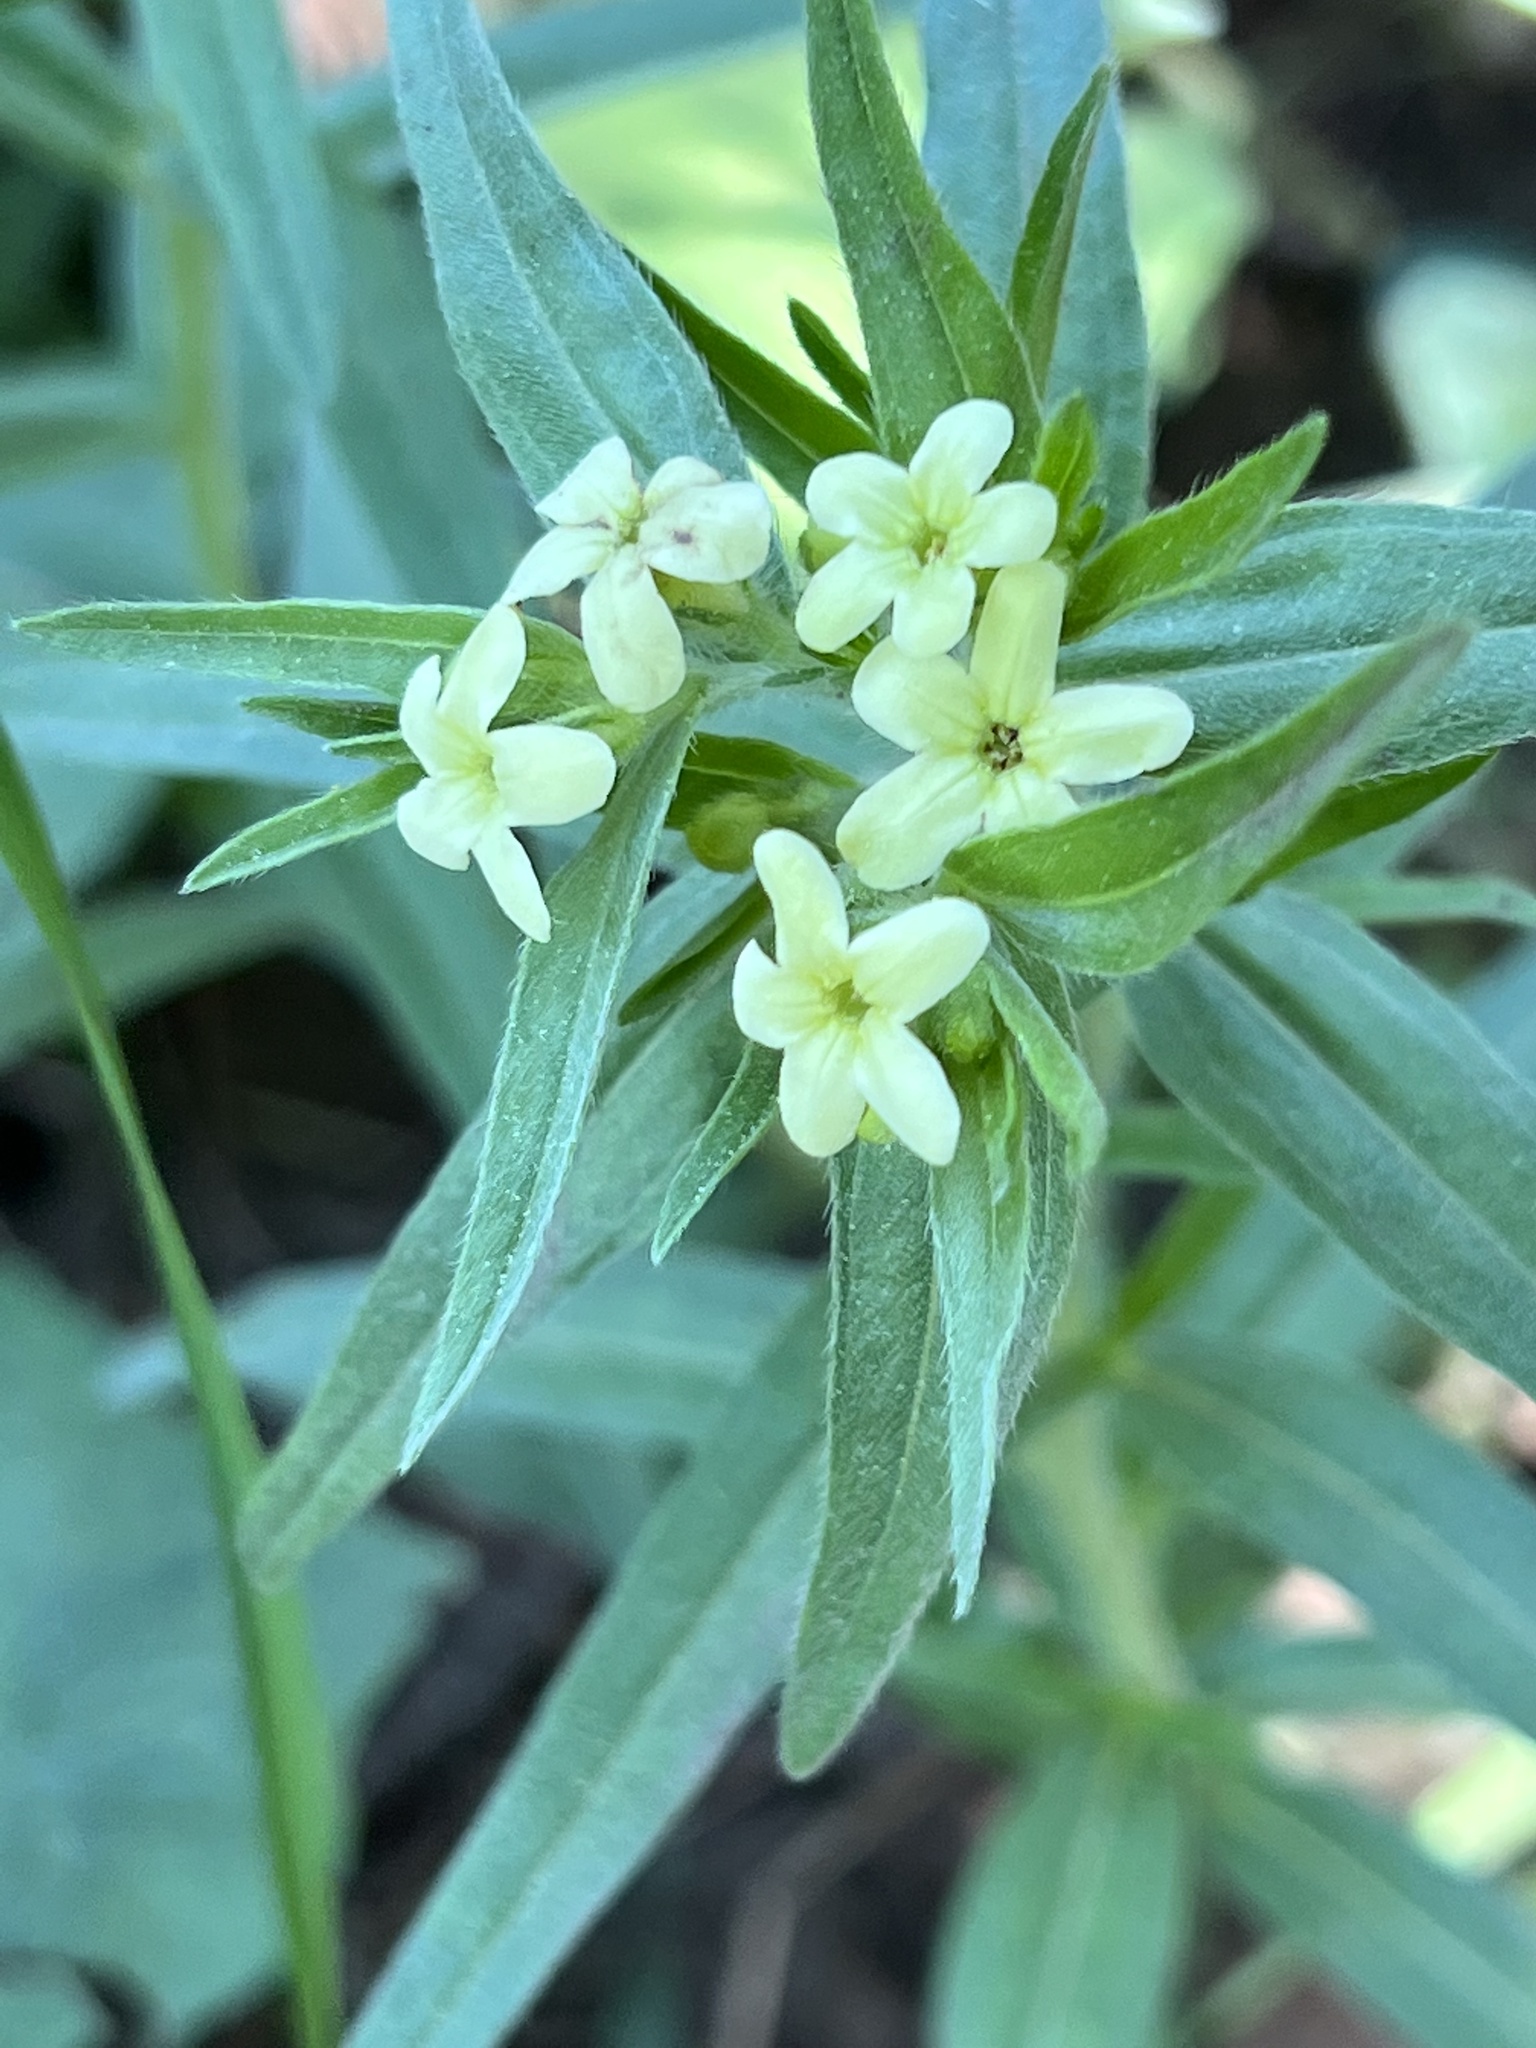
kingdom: Plantae
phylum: Tracheophyta
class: Magnoliopsida
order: Boraginales
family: Boraginaceae
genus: Lithospermum
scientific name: Lithospermum ruderale
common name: Western gromwell
